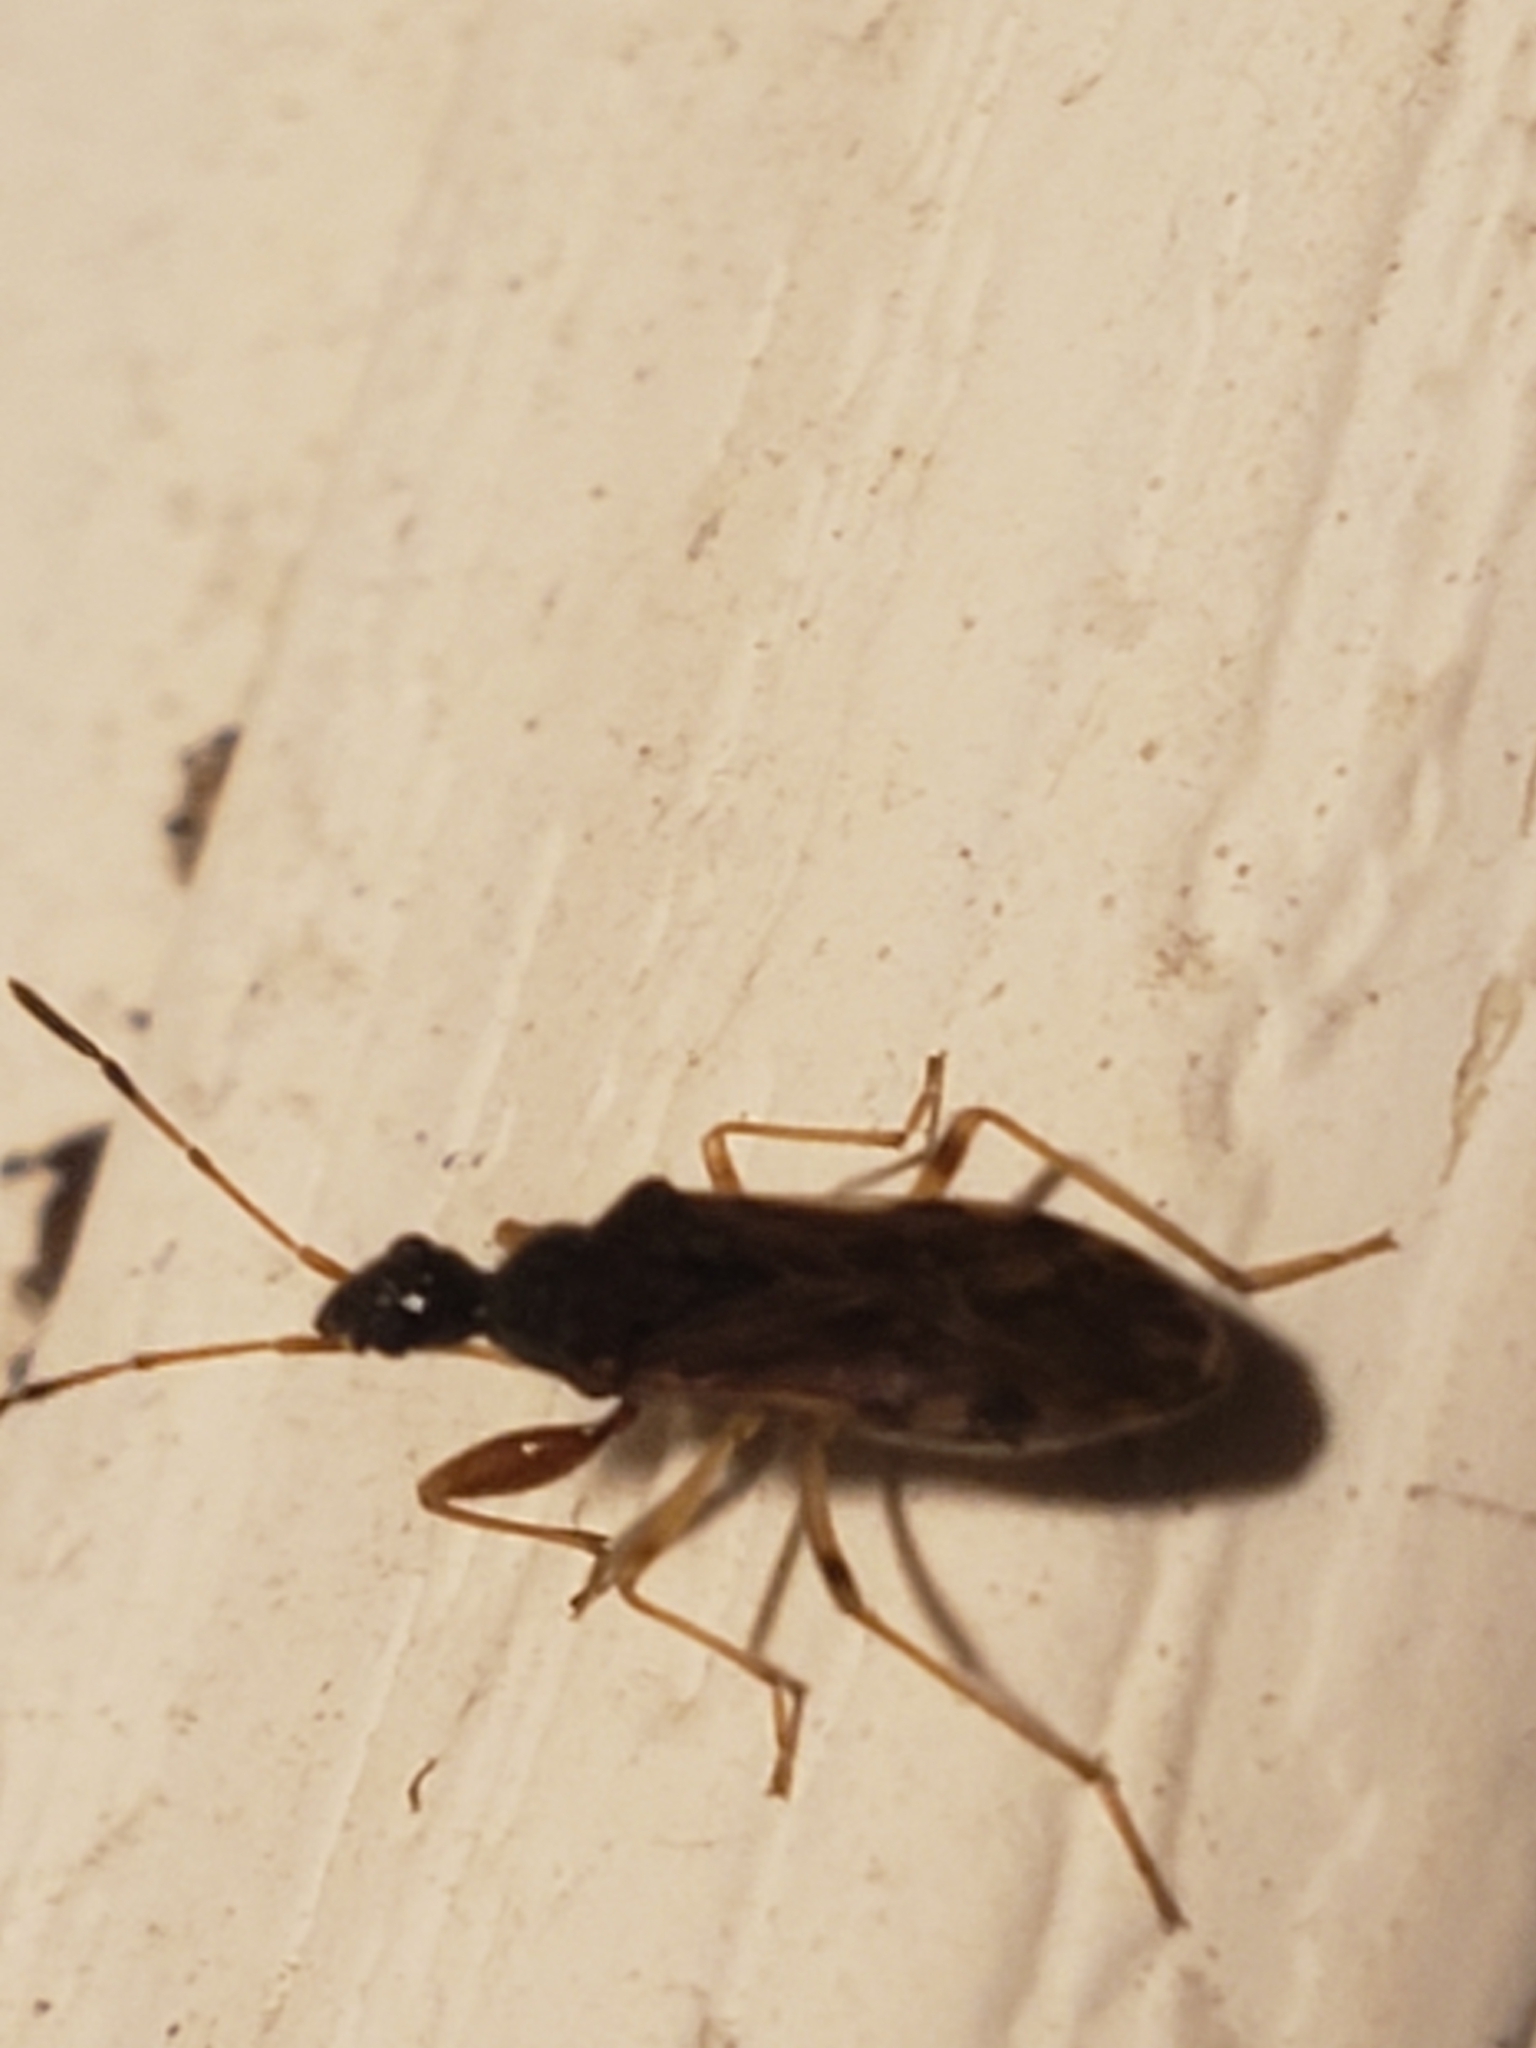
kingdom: Animalia
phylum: Arthropoda
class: Insecta
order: Hemiptera
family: Rhyparochromidae
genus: Heraeus
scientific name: Heraeus plebejus
